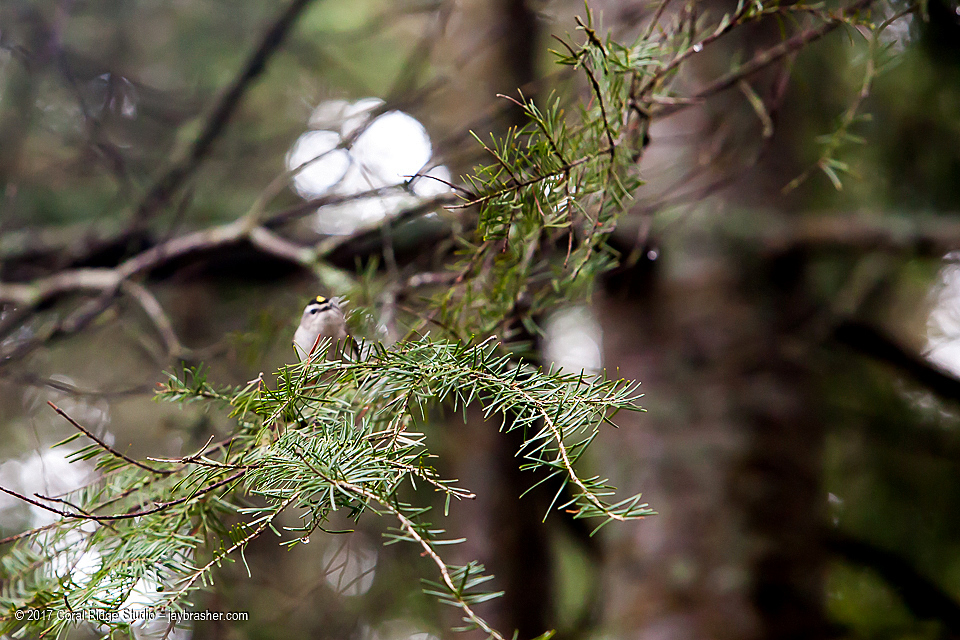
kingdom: Animalia
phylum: Chordata
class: Aves
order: Passeriformes
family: Regulidae
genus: Regulus
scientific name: Regulus satrapa
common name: Golden-crowned kinglet
